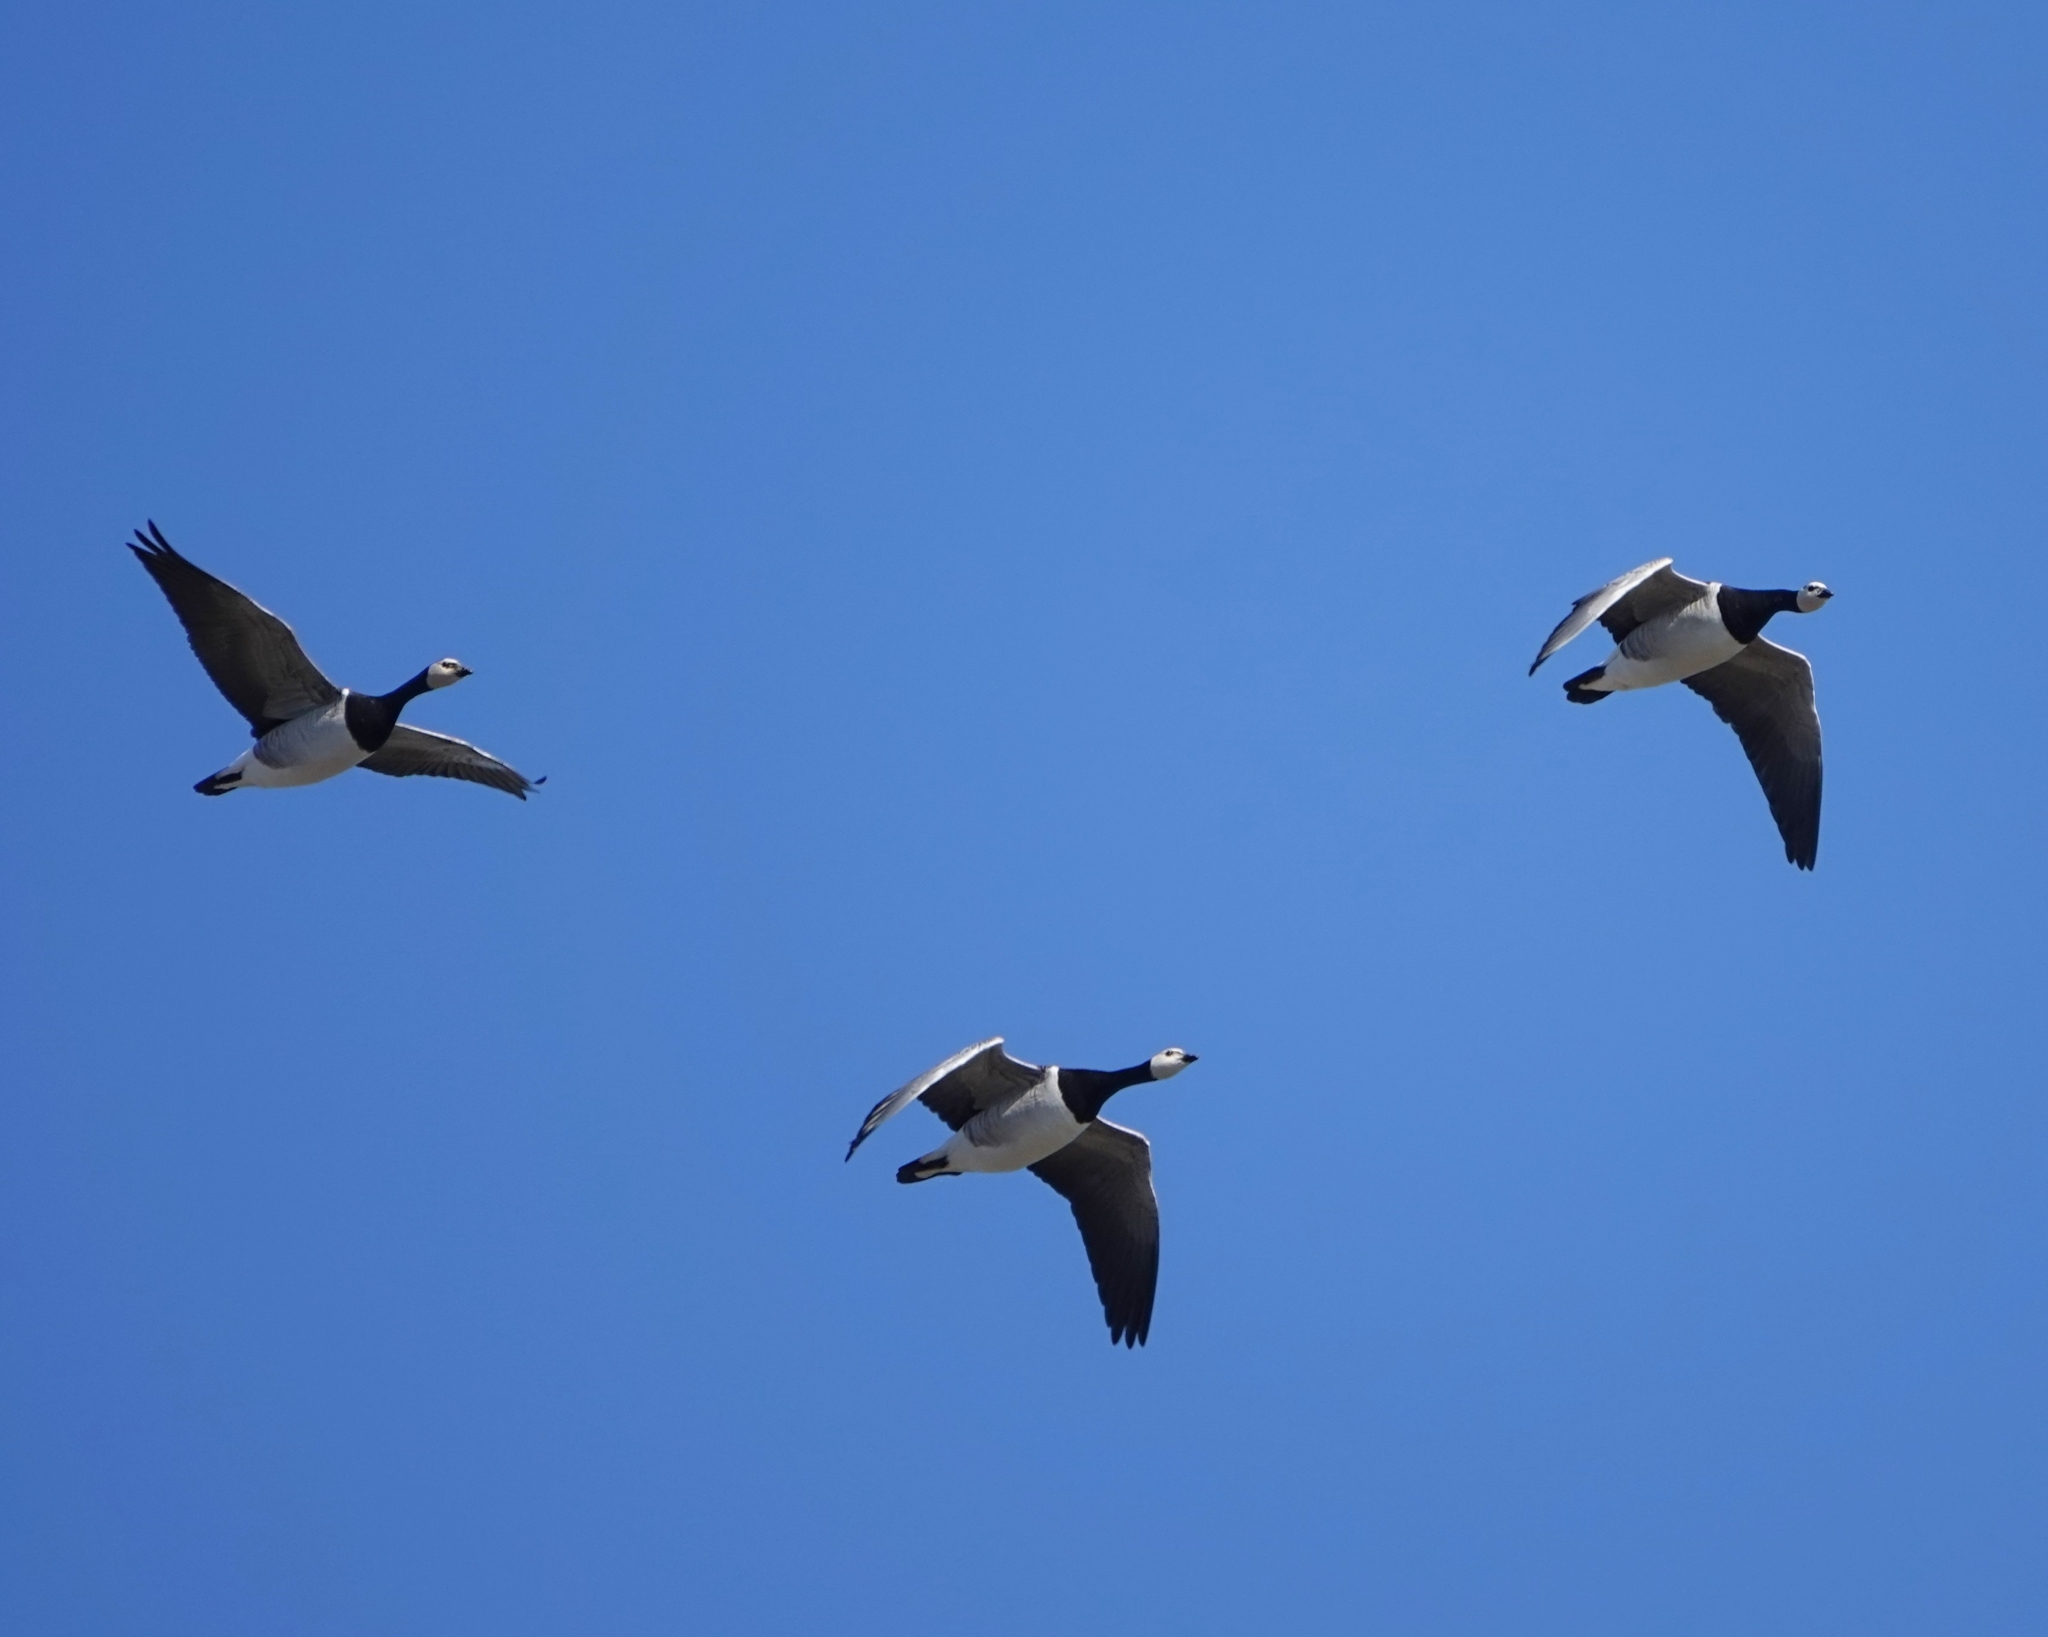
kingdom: Animalia
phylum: Chordata
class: Aves
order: Anseriformes
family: Anatidae
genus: Branta
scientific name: Branta leucopsis
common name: Barnacle goose
